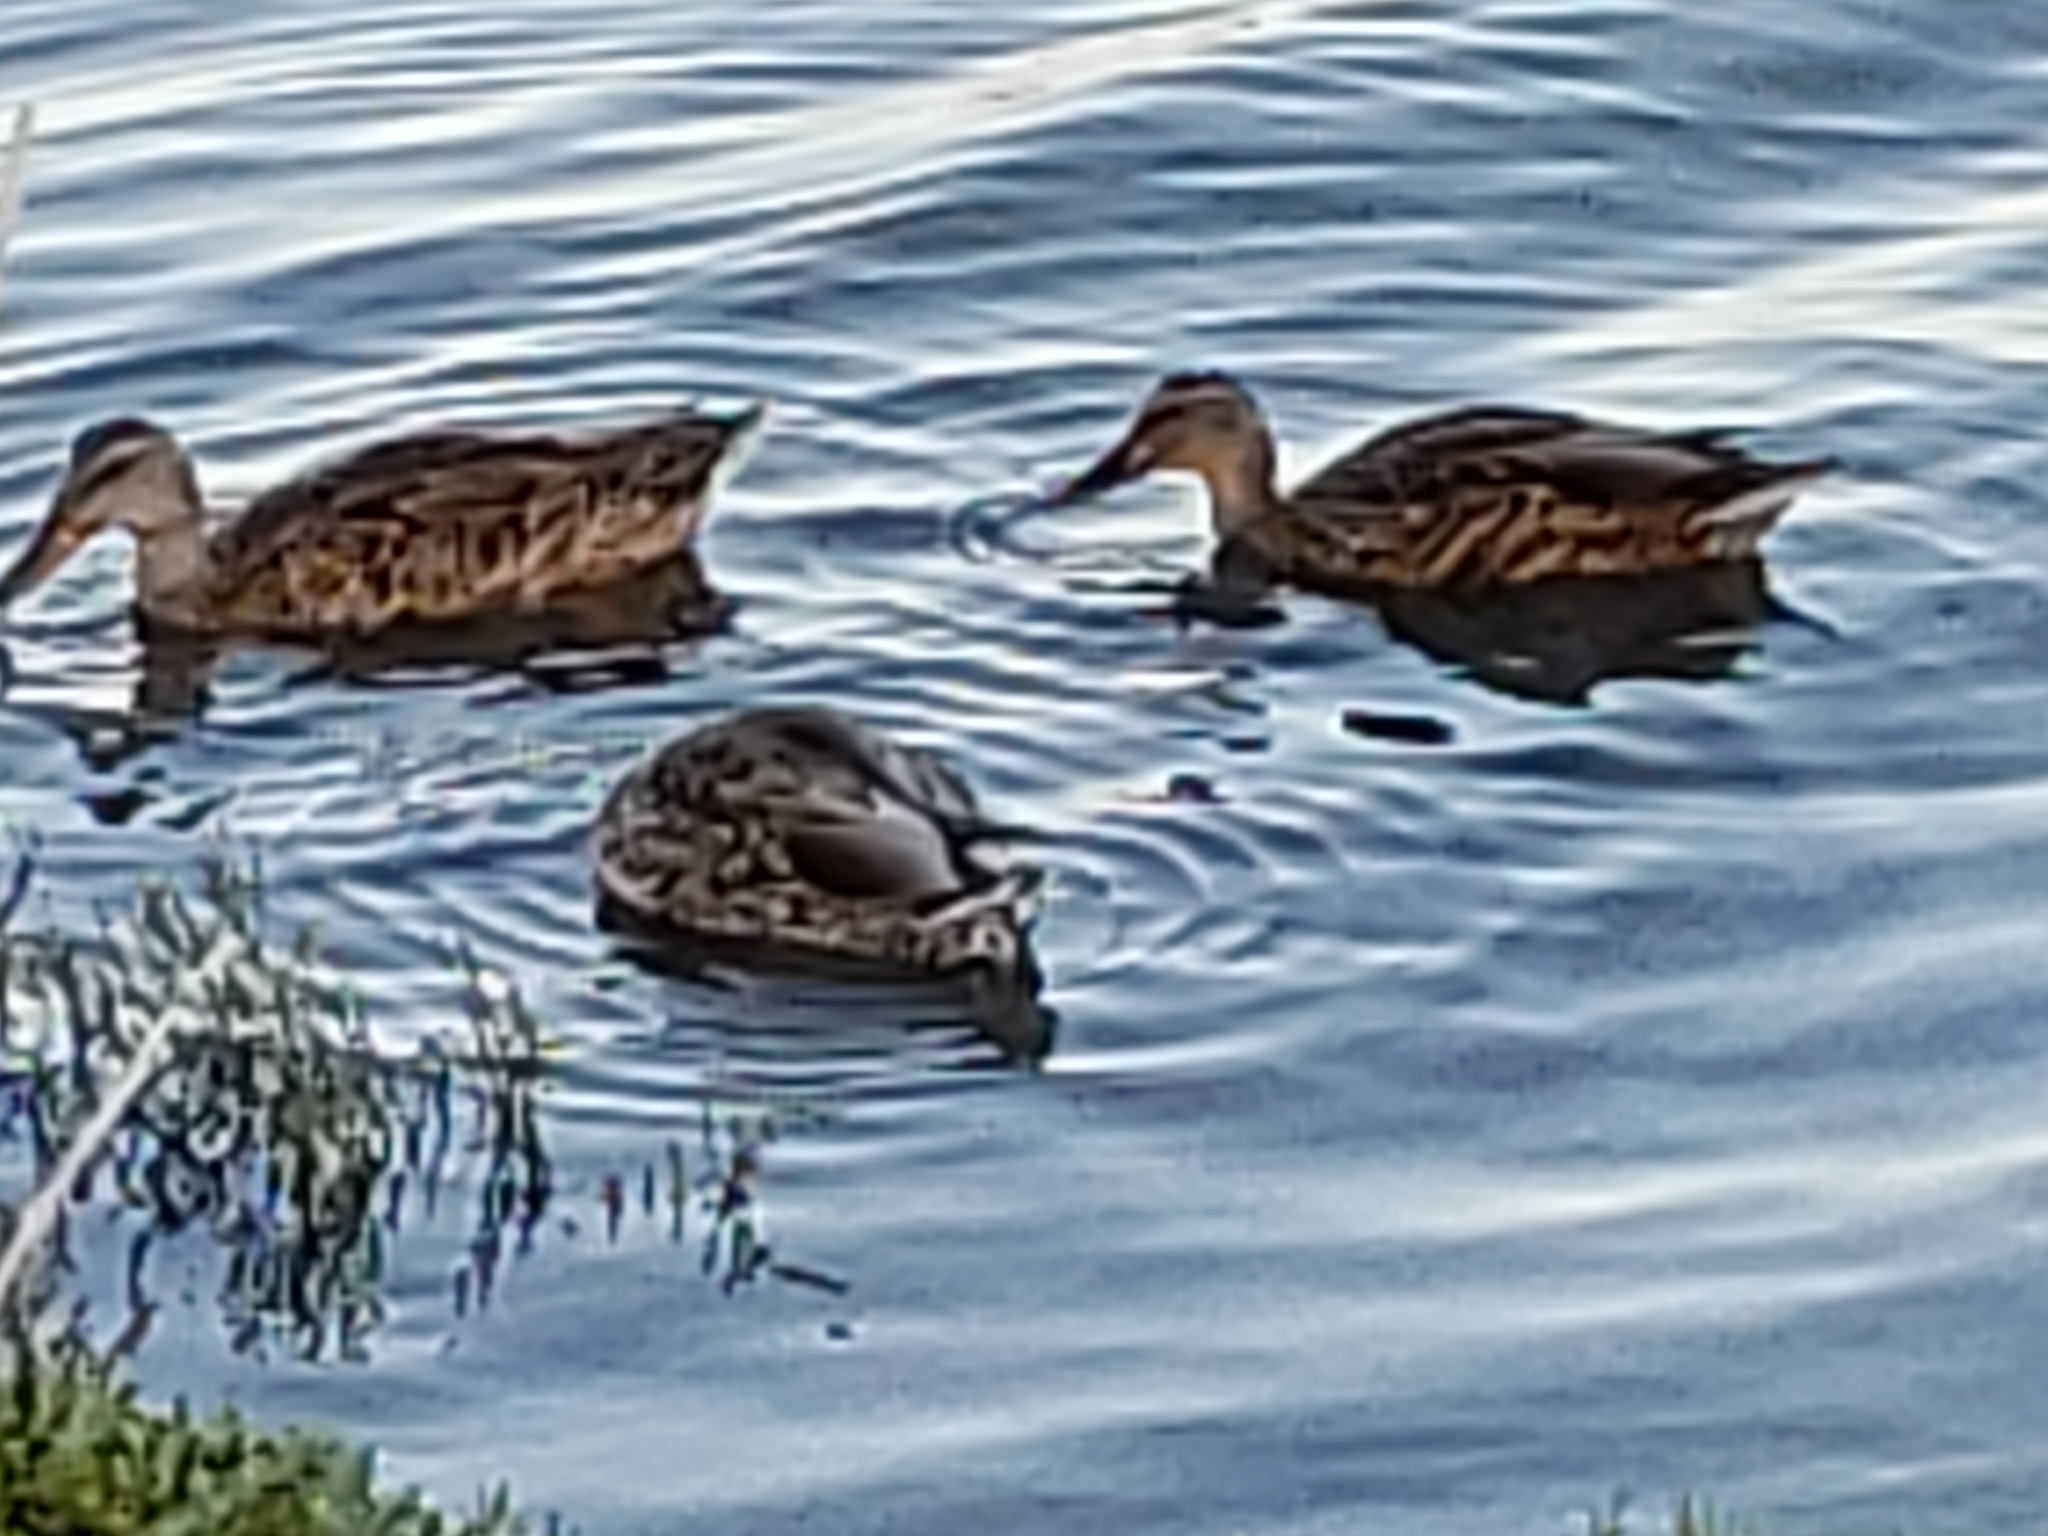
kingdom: Animalia
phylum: Chordata
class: Aves
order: Anseriformes
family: Anatidae
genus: Anas
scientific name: Anas platyrhynchos
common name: Mallard
